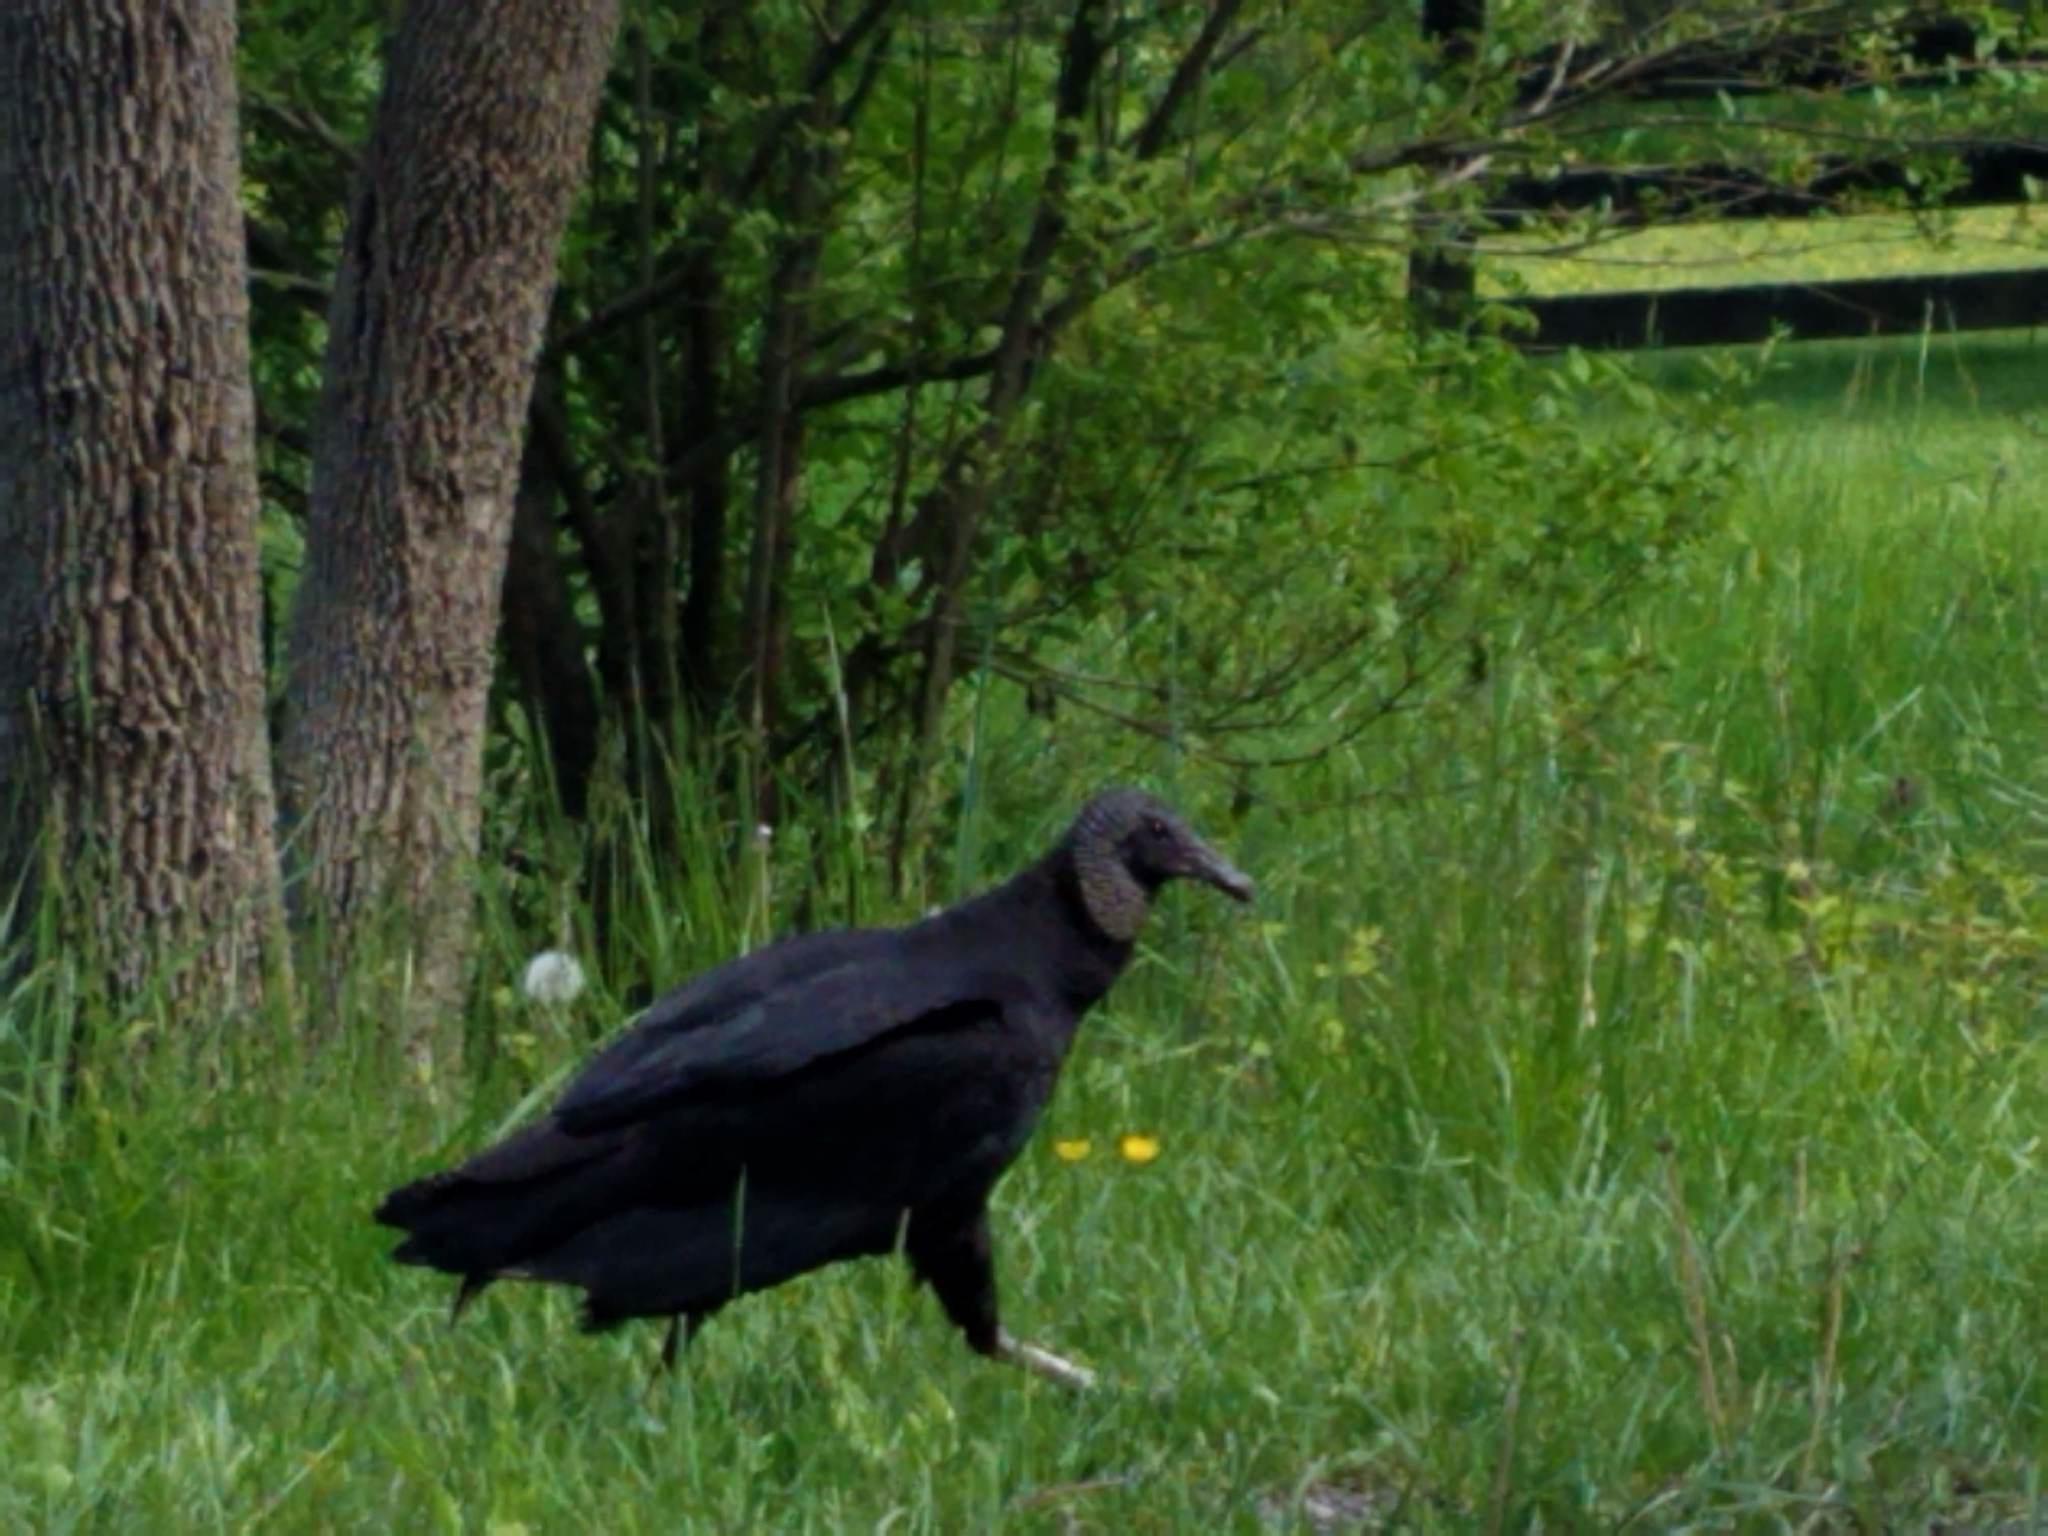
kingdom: Animalia
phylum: Chordata
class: Aves
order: Accipitriformes
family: Cathartidae
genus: Coragyps
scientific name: Coragyps atratus
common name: Black vulture
